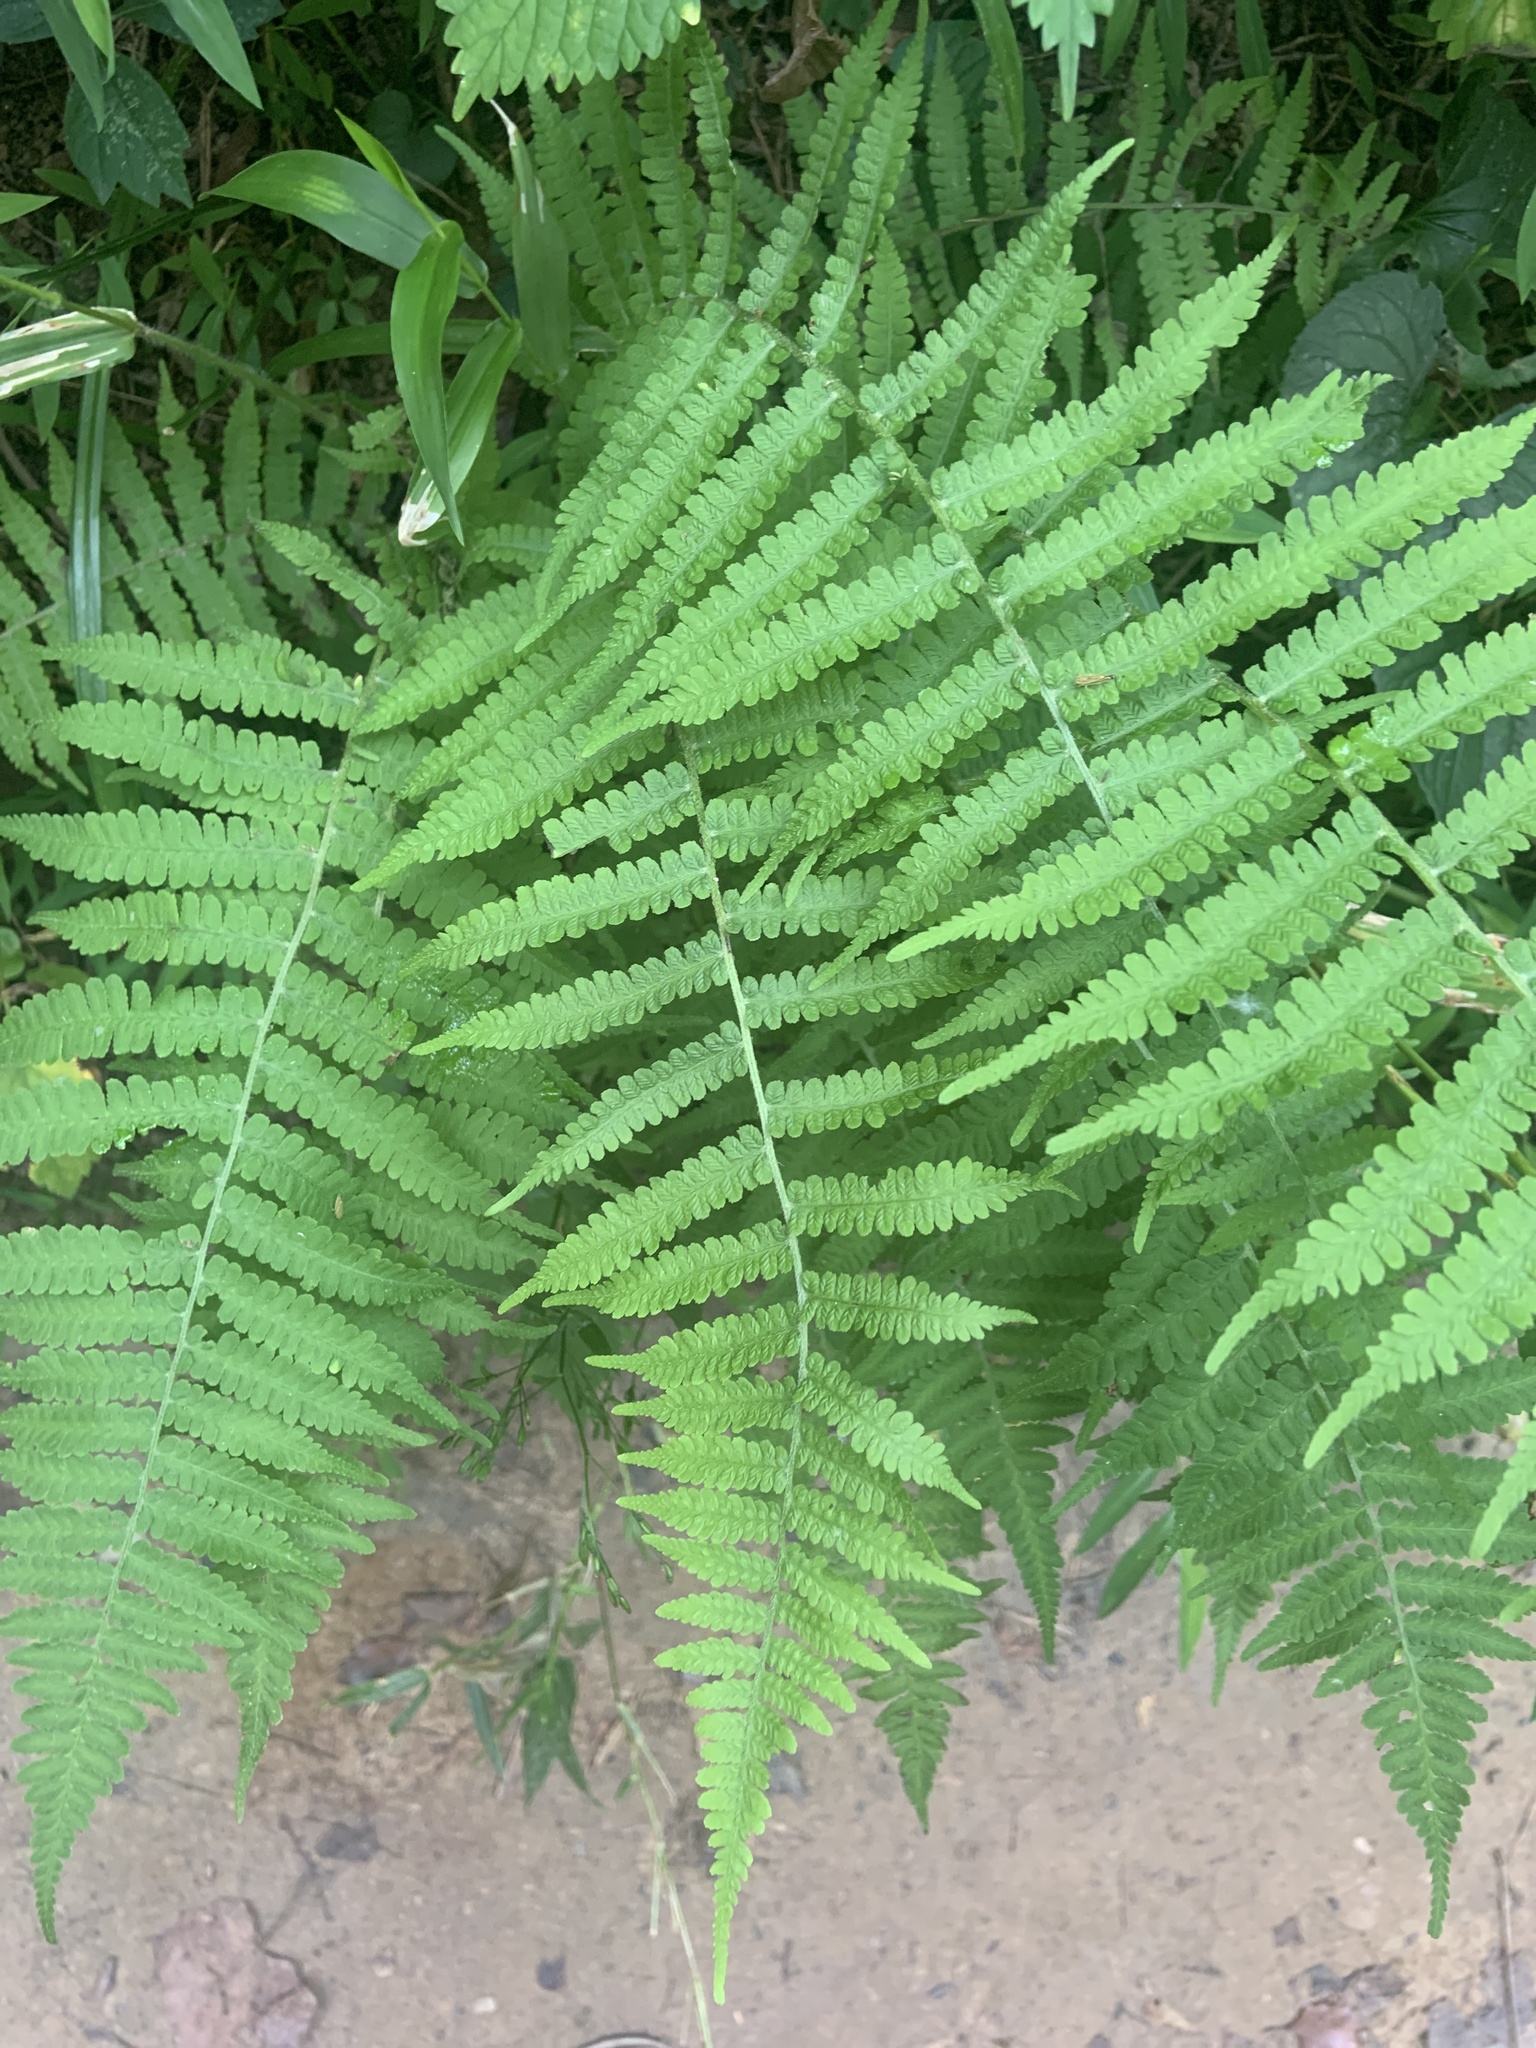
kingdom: Plantae
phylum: Tracheophyta
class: Polypodiopsida
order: Polypodiales
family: Athyriaceae
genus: Deparia
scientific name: Deparia acrostichoides
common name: Silver false spleenwort
